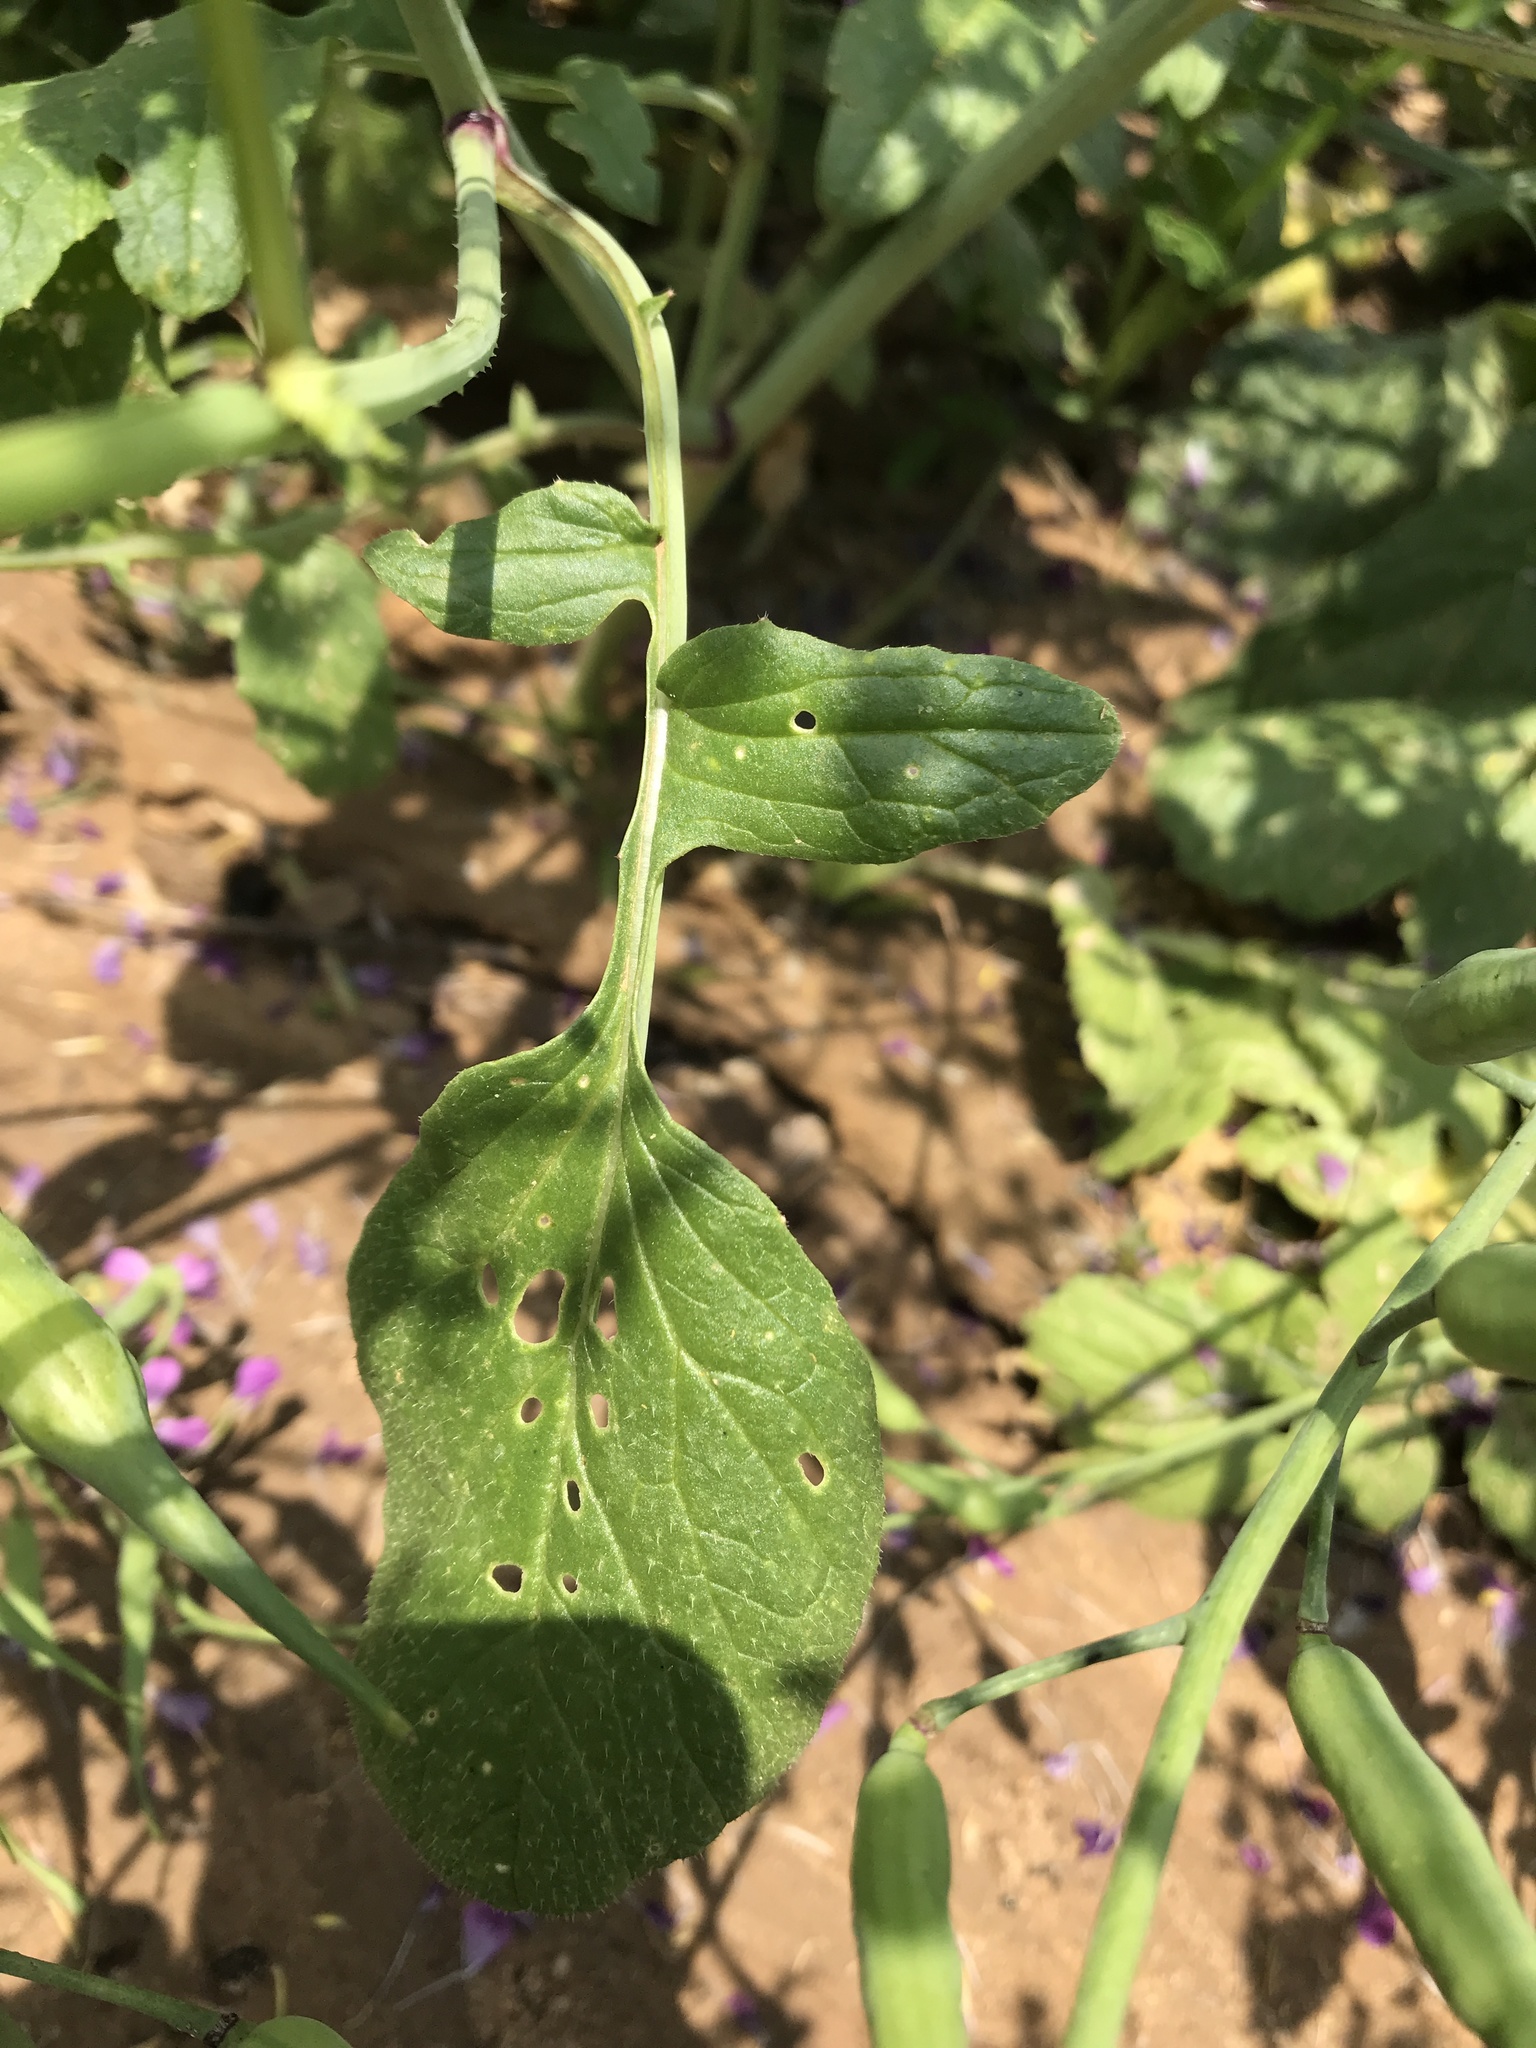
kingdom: Plantae
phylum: Tracheophyta
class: Magnoliopsida
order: Brassicales
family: Brassicaceae
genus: Raphanus
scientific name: Raphanus sativus
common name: Cultivated radish
